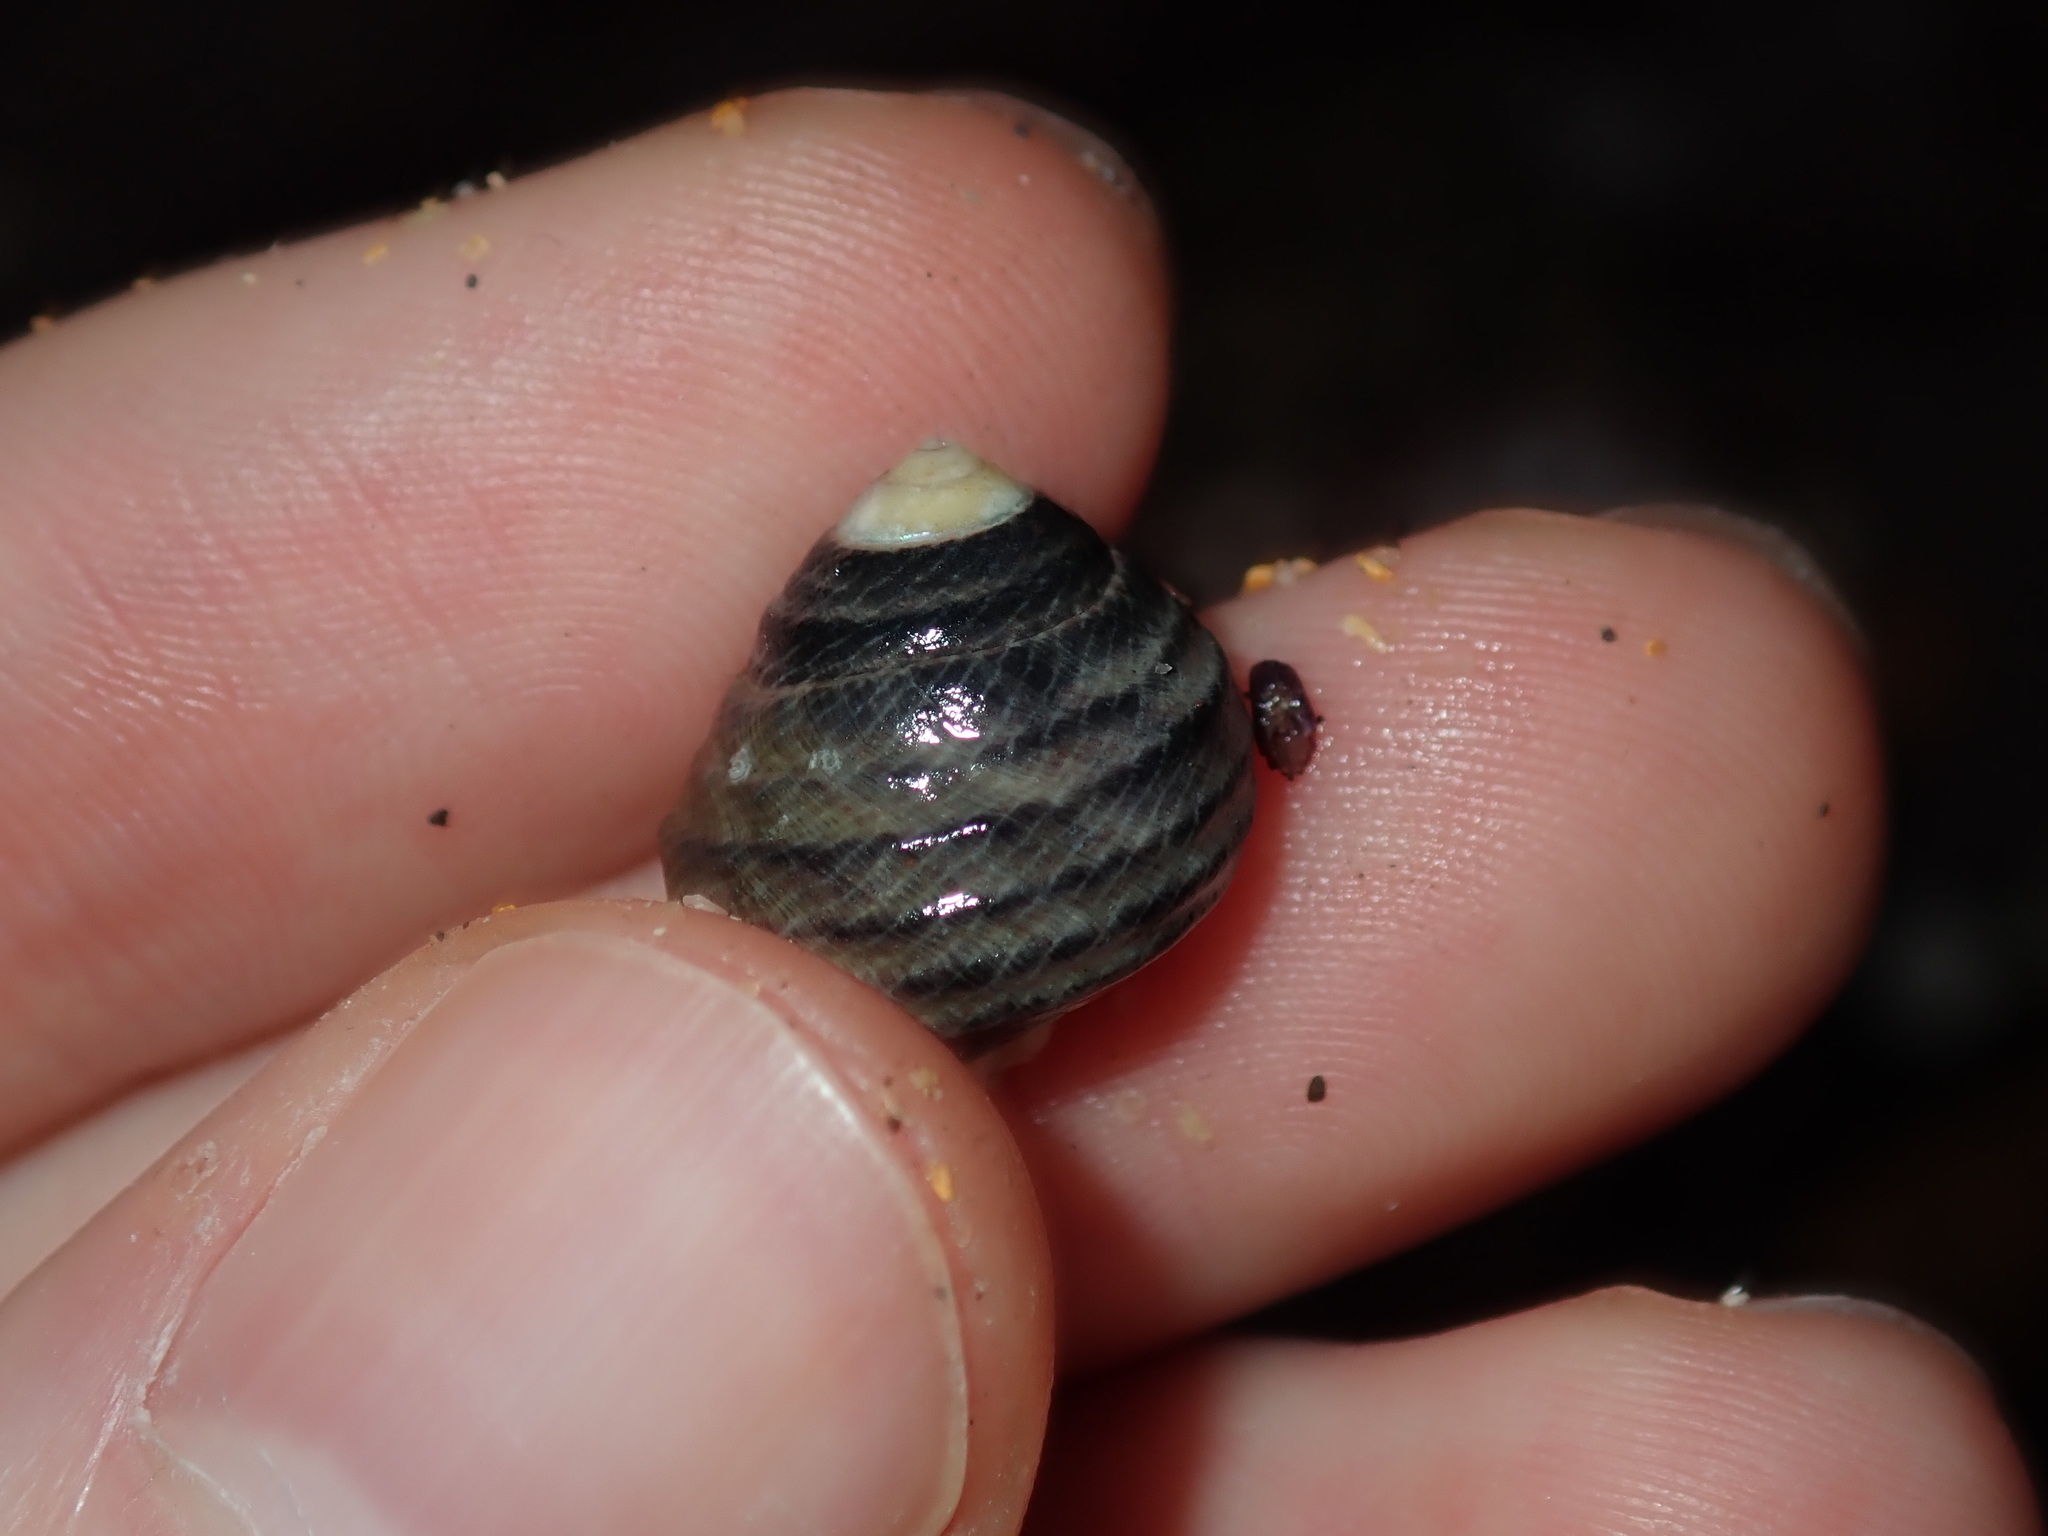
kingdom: Animalia
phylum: Mollusca
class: Gastropoda
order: Trochida
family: Trochidae
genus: Austrocochlea
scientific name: Austrocochlea constricta
